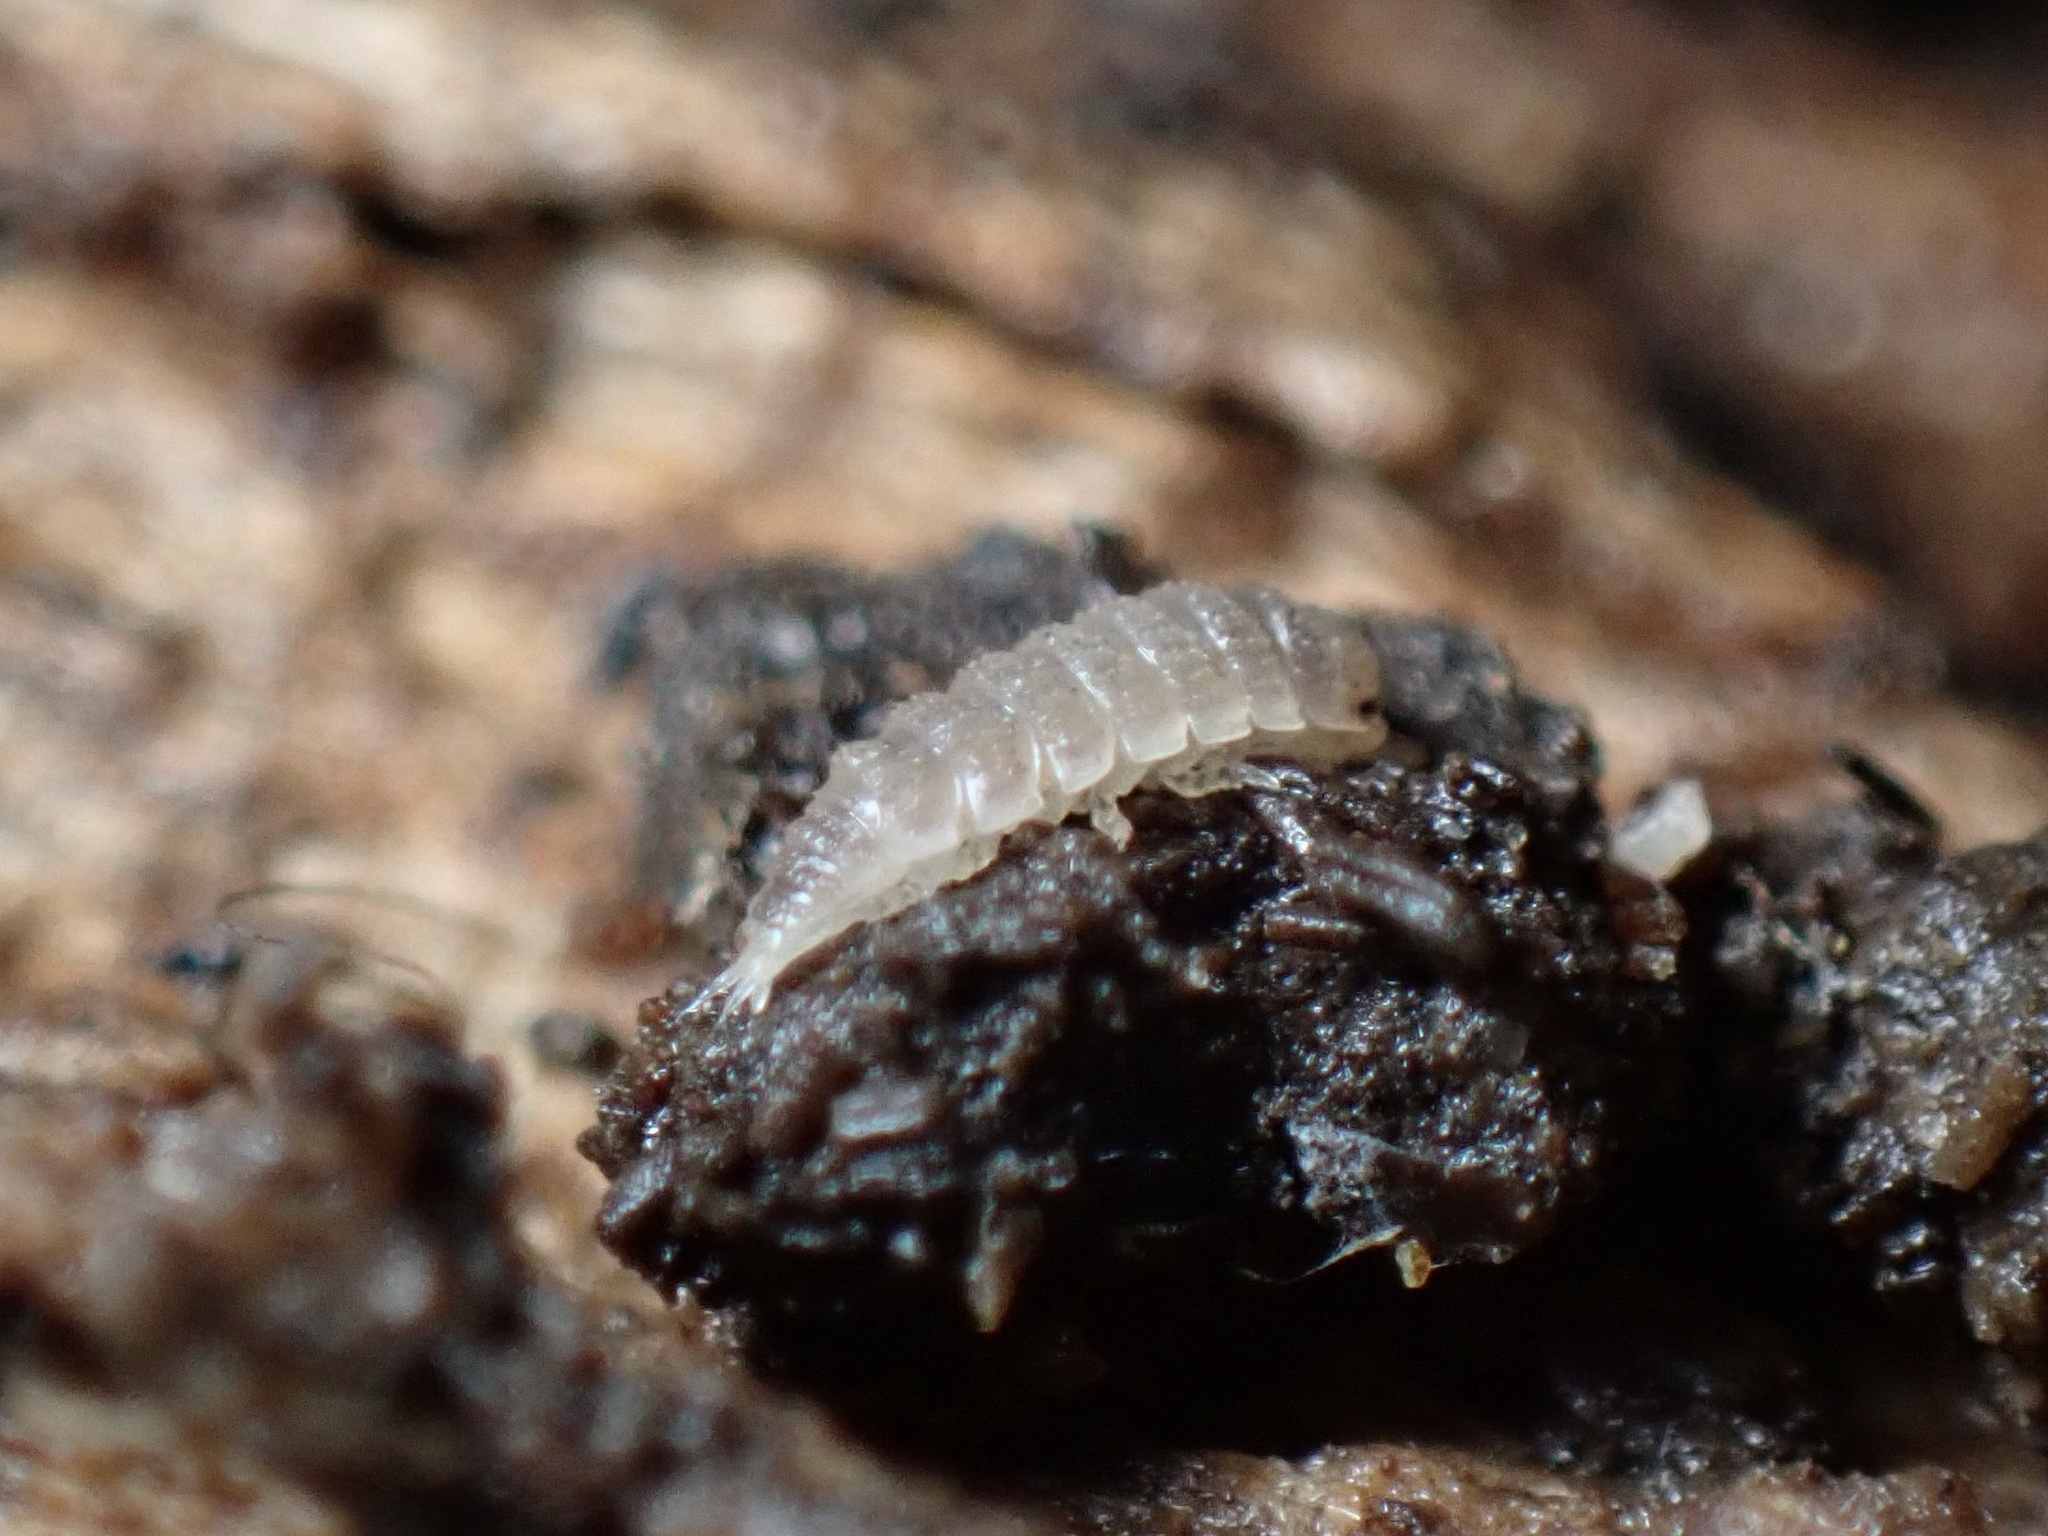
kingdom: Animalia
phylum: Arthropoda
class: Malacostraca
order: Isopoda
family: Trichoniscidae
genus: Haplophthalmus
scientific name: Haplophthalmus danicus
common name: Pillbug
